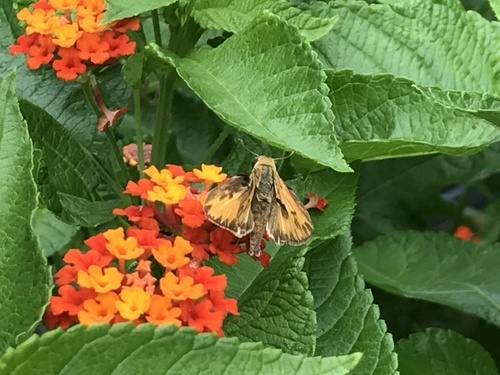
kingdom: Animalia
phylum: Arthropoda
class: Insecta
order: Lepidoptera
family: Hesperiidae
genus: Hylephila
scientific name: Hylephila phyleus
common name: Fiery skipper
